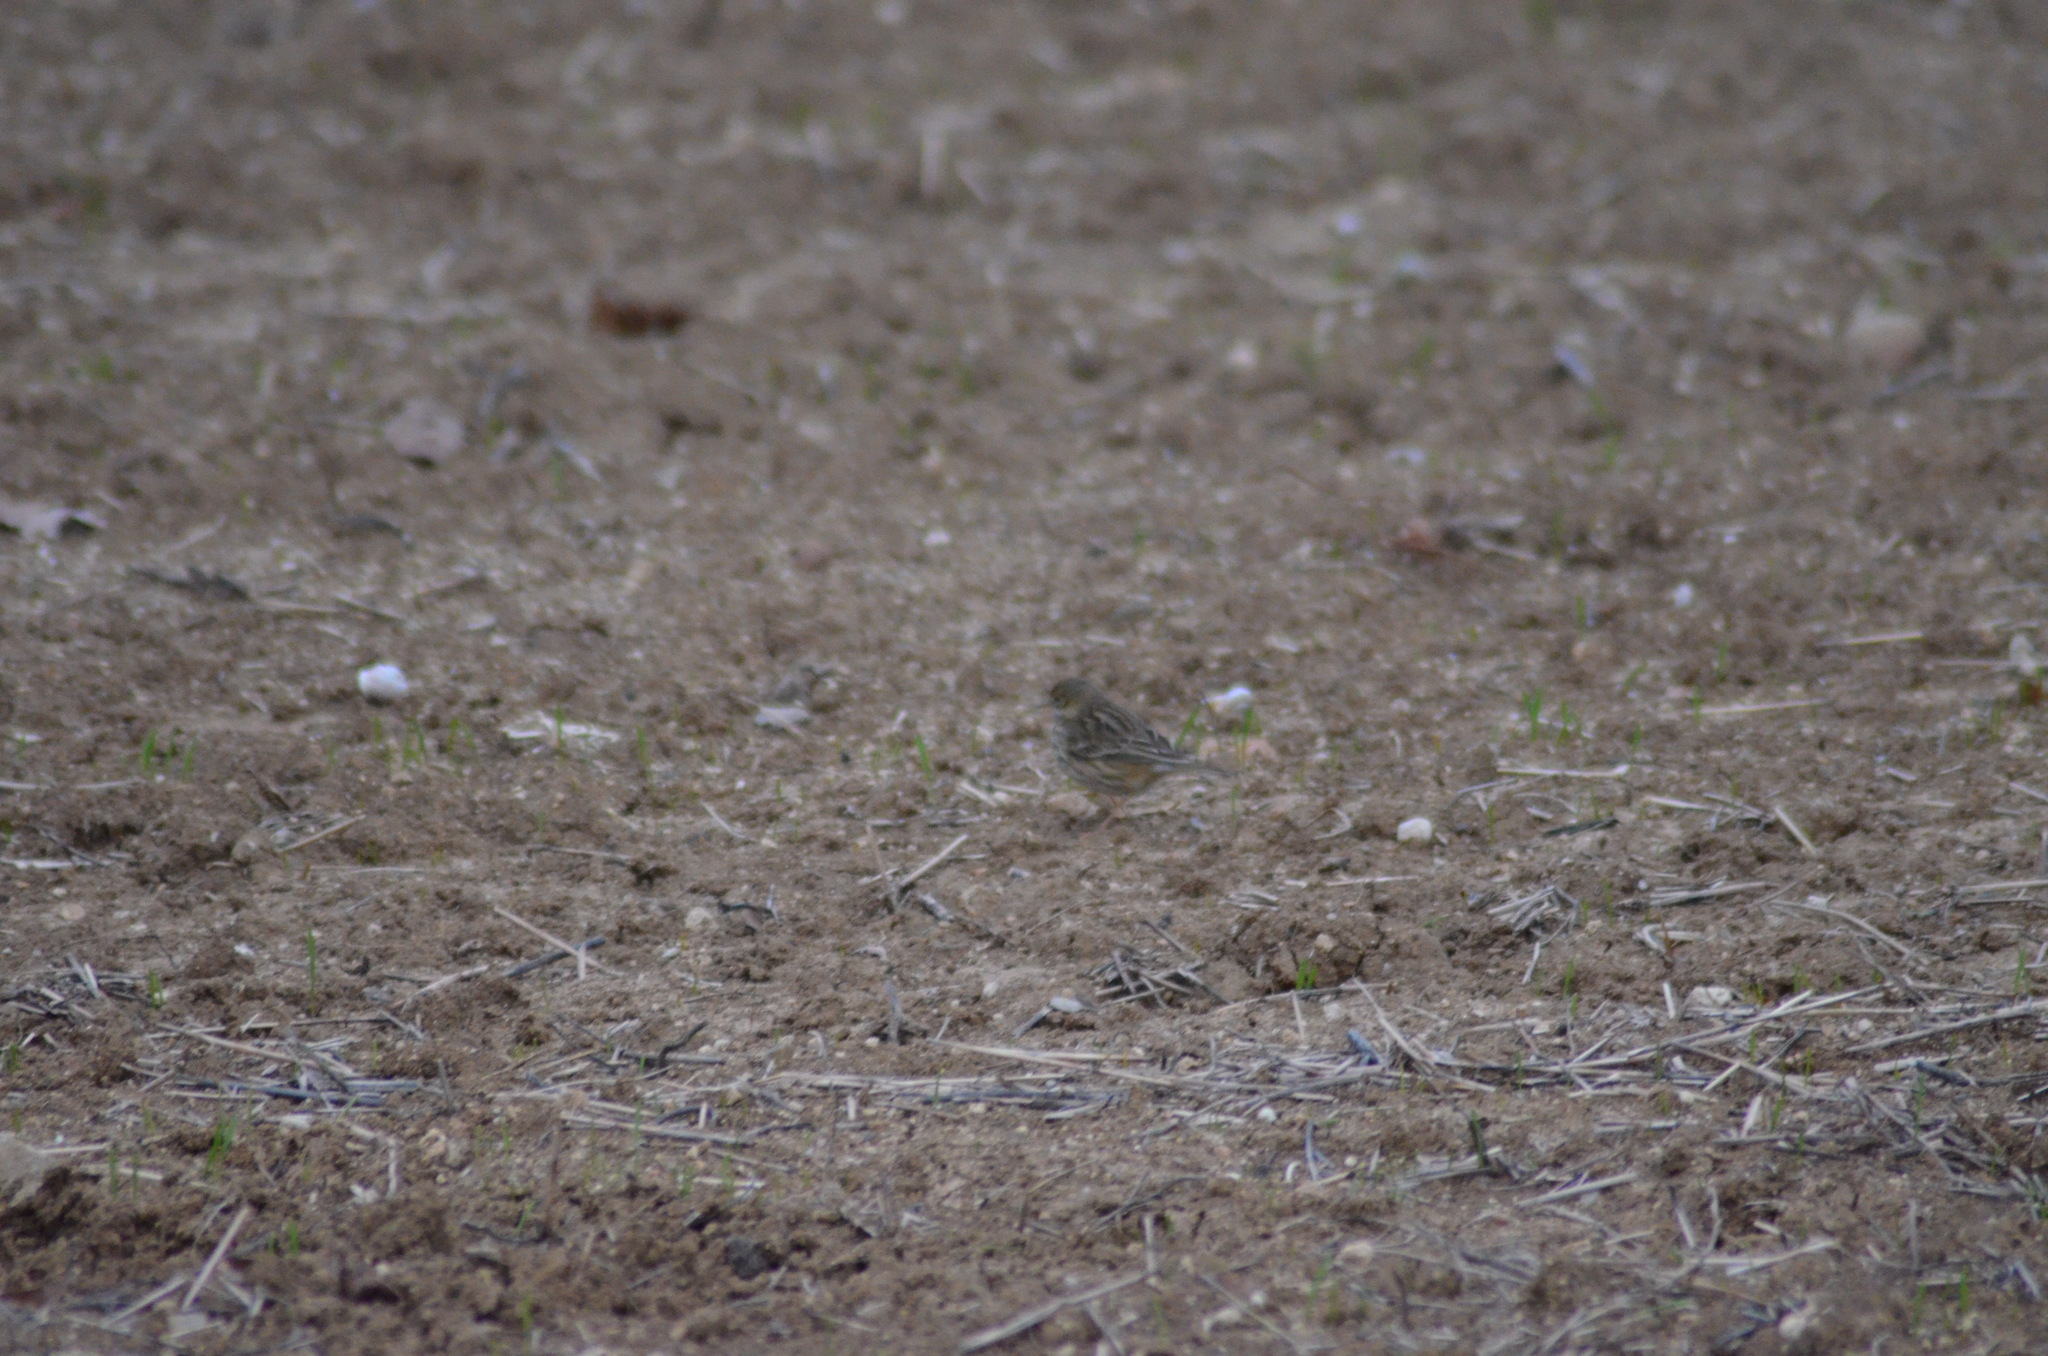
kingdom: Animalia
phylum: Chordata
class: Aves
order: Passeriformes
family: Motacillidae
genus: Anthus
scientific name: Anthus pratensis
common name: Meadow pipit
